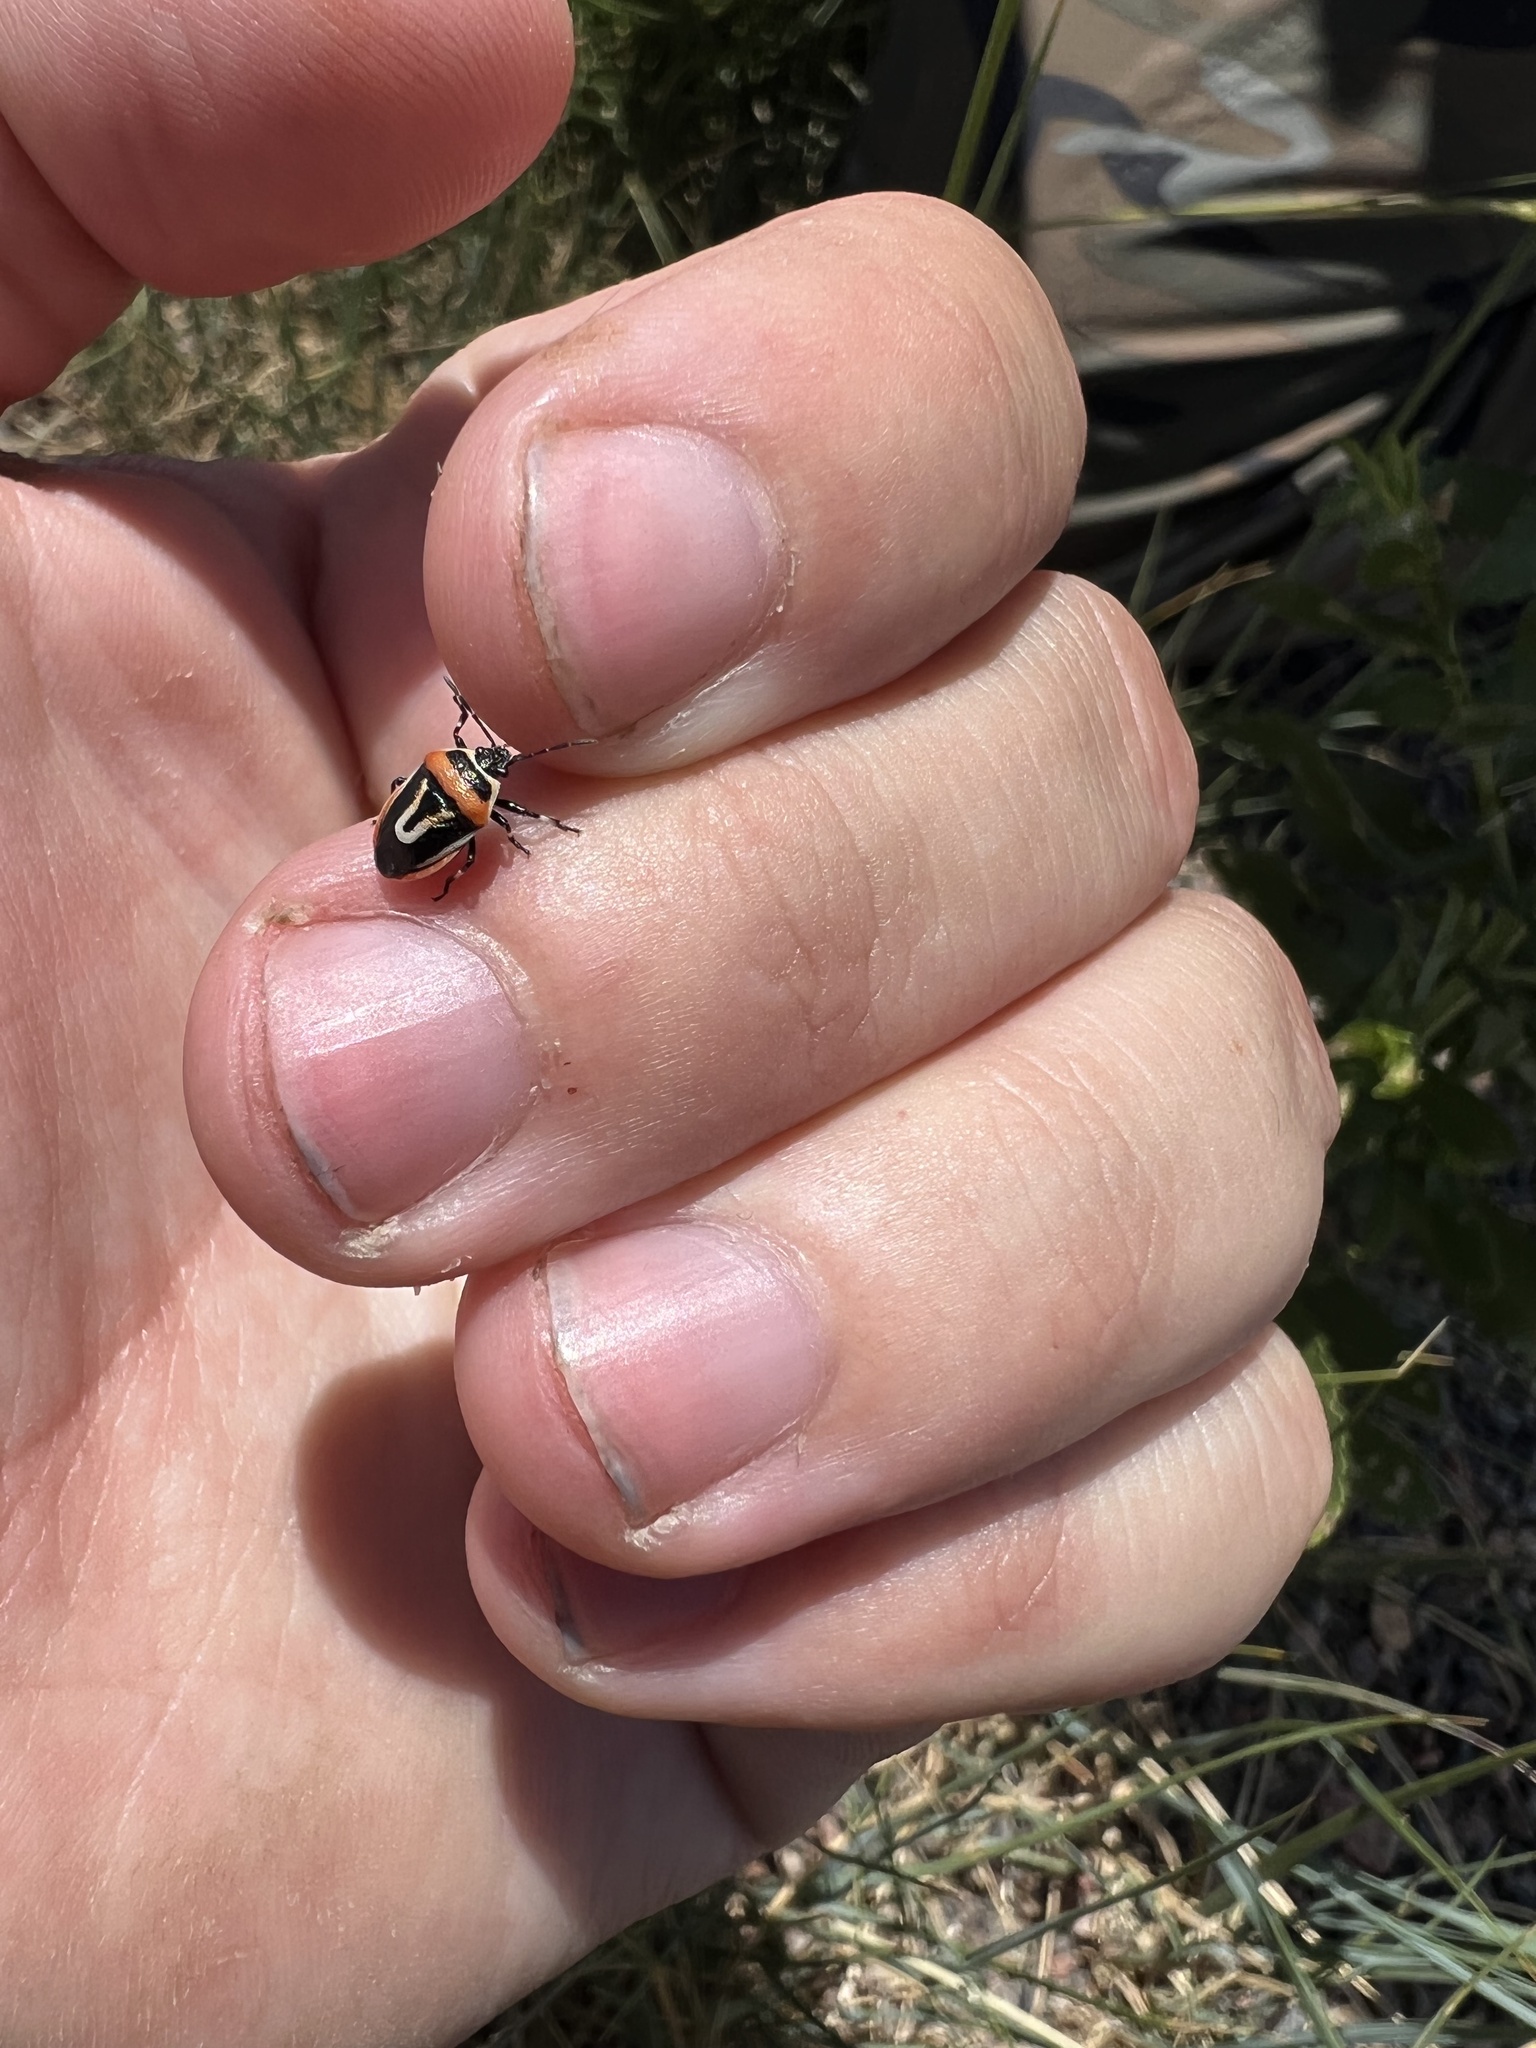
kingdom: Animalia
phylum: Arthropoda
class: Insecta
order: Hemiptera
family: Pentatomidae
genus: Perillus
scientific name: Perillus exaptus
